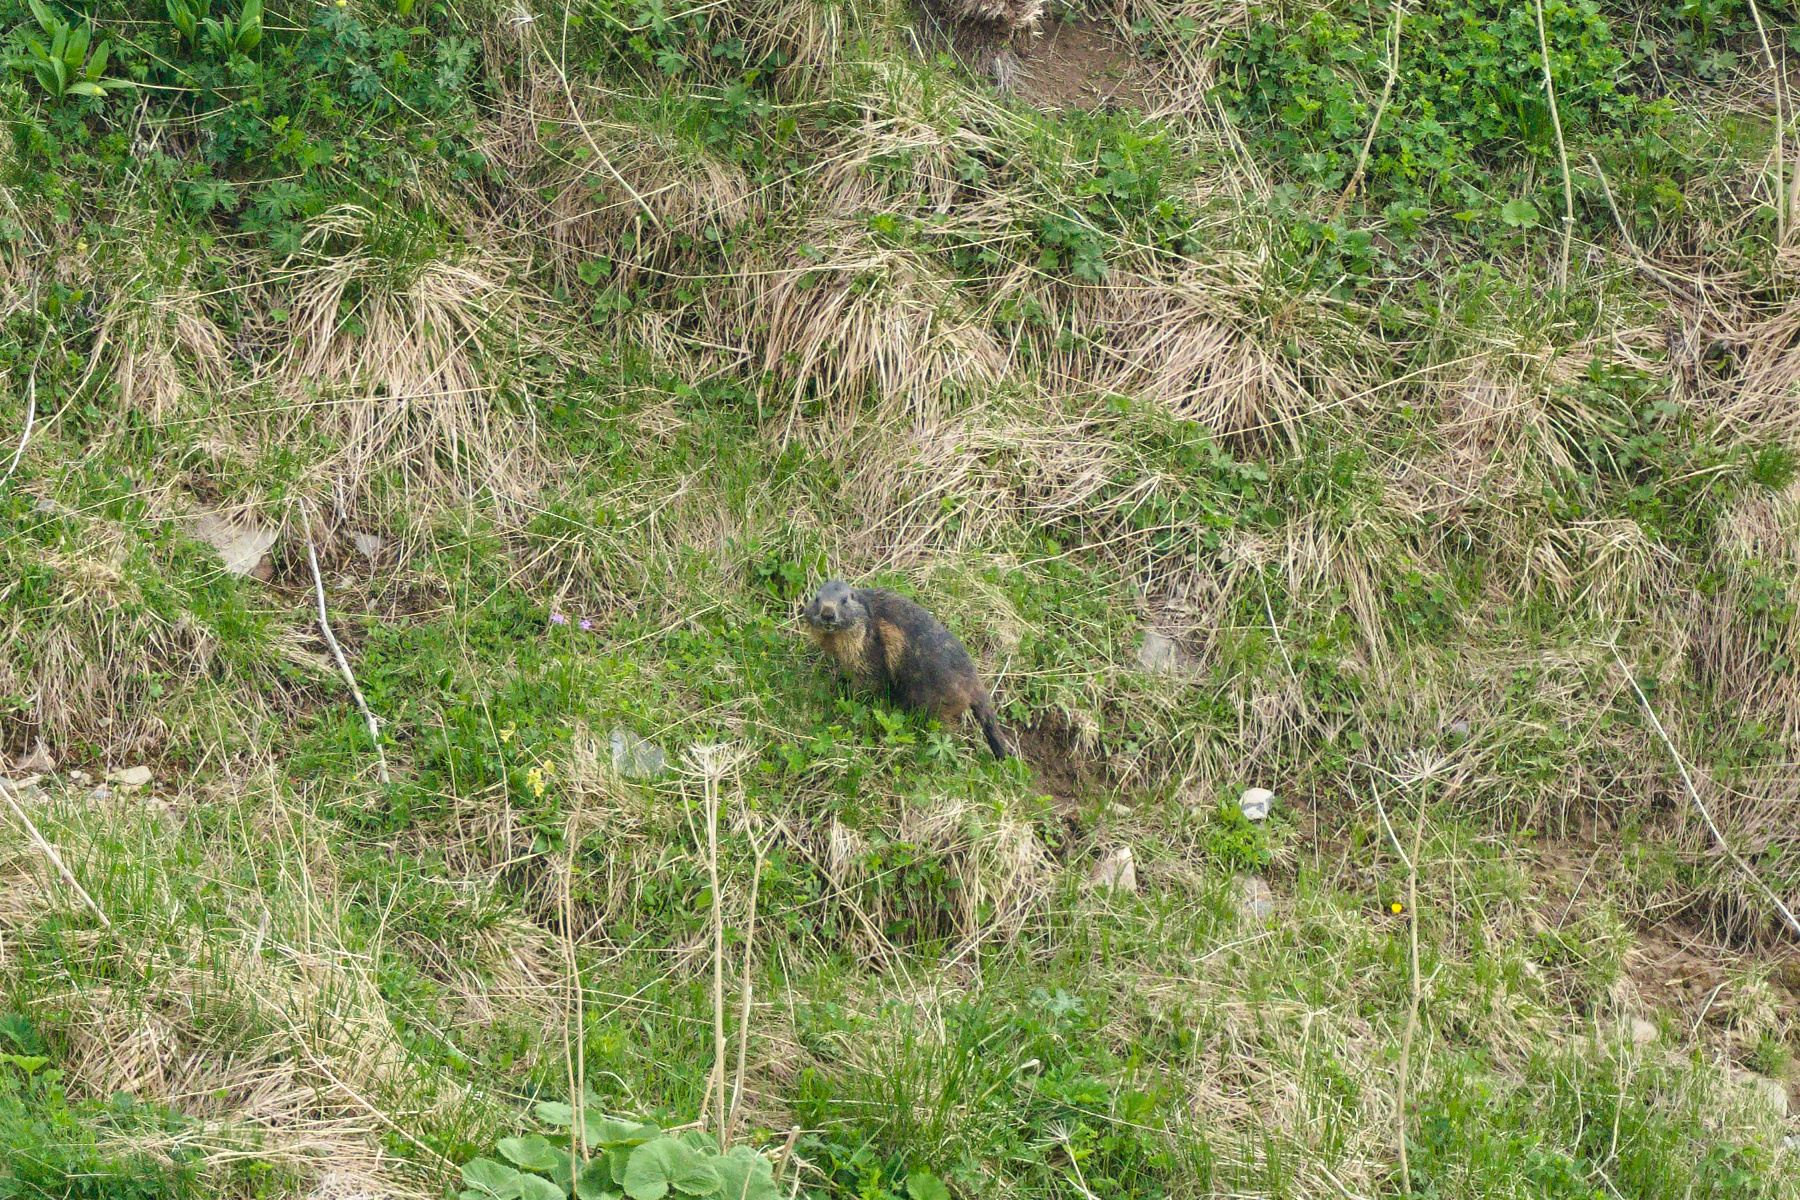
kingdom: Animalia
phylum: Chordata
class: Mammalia
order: Rodentia
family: Sciuridae
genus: Marmota
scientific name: Marmota marmota
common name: Alpine marmot
